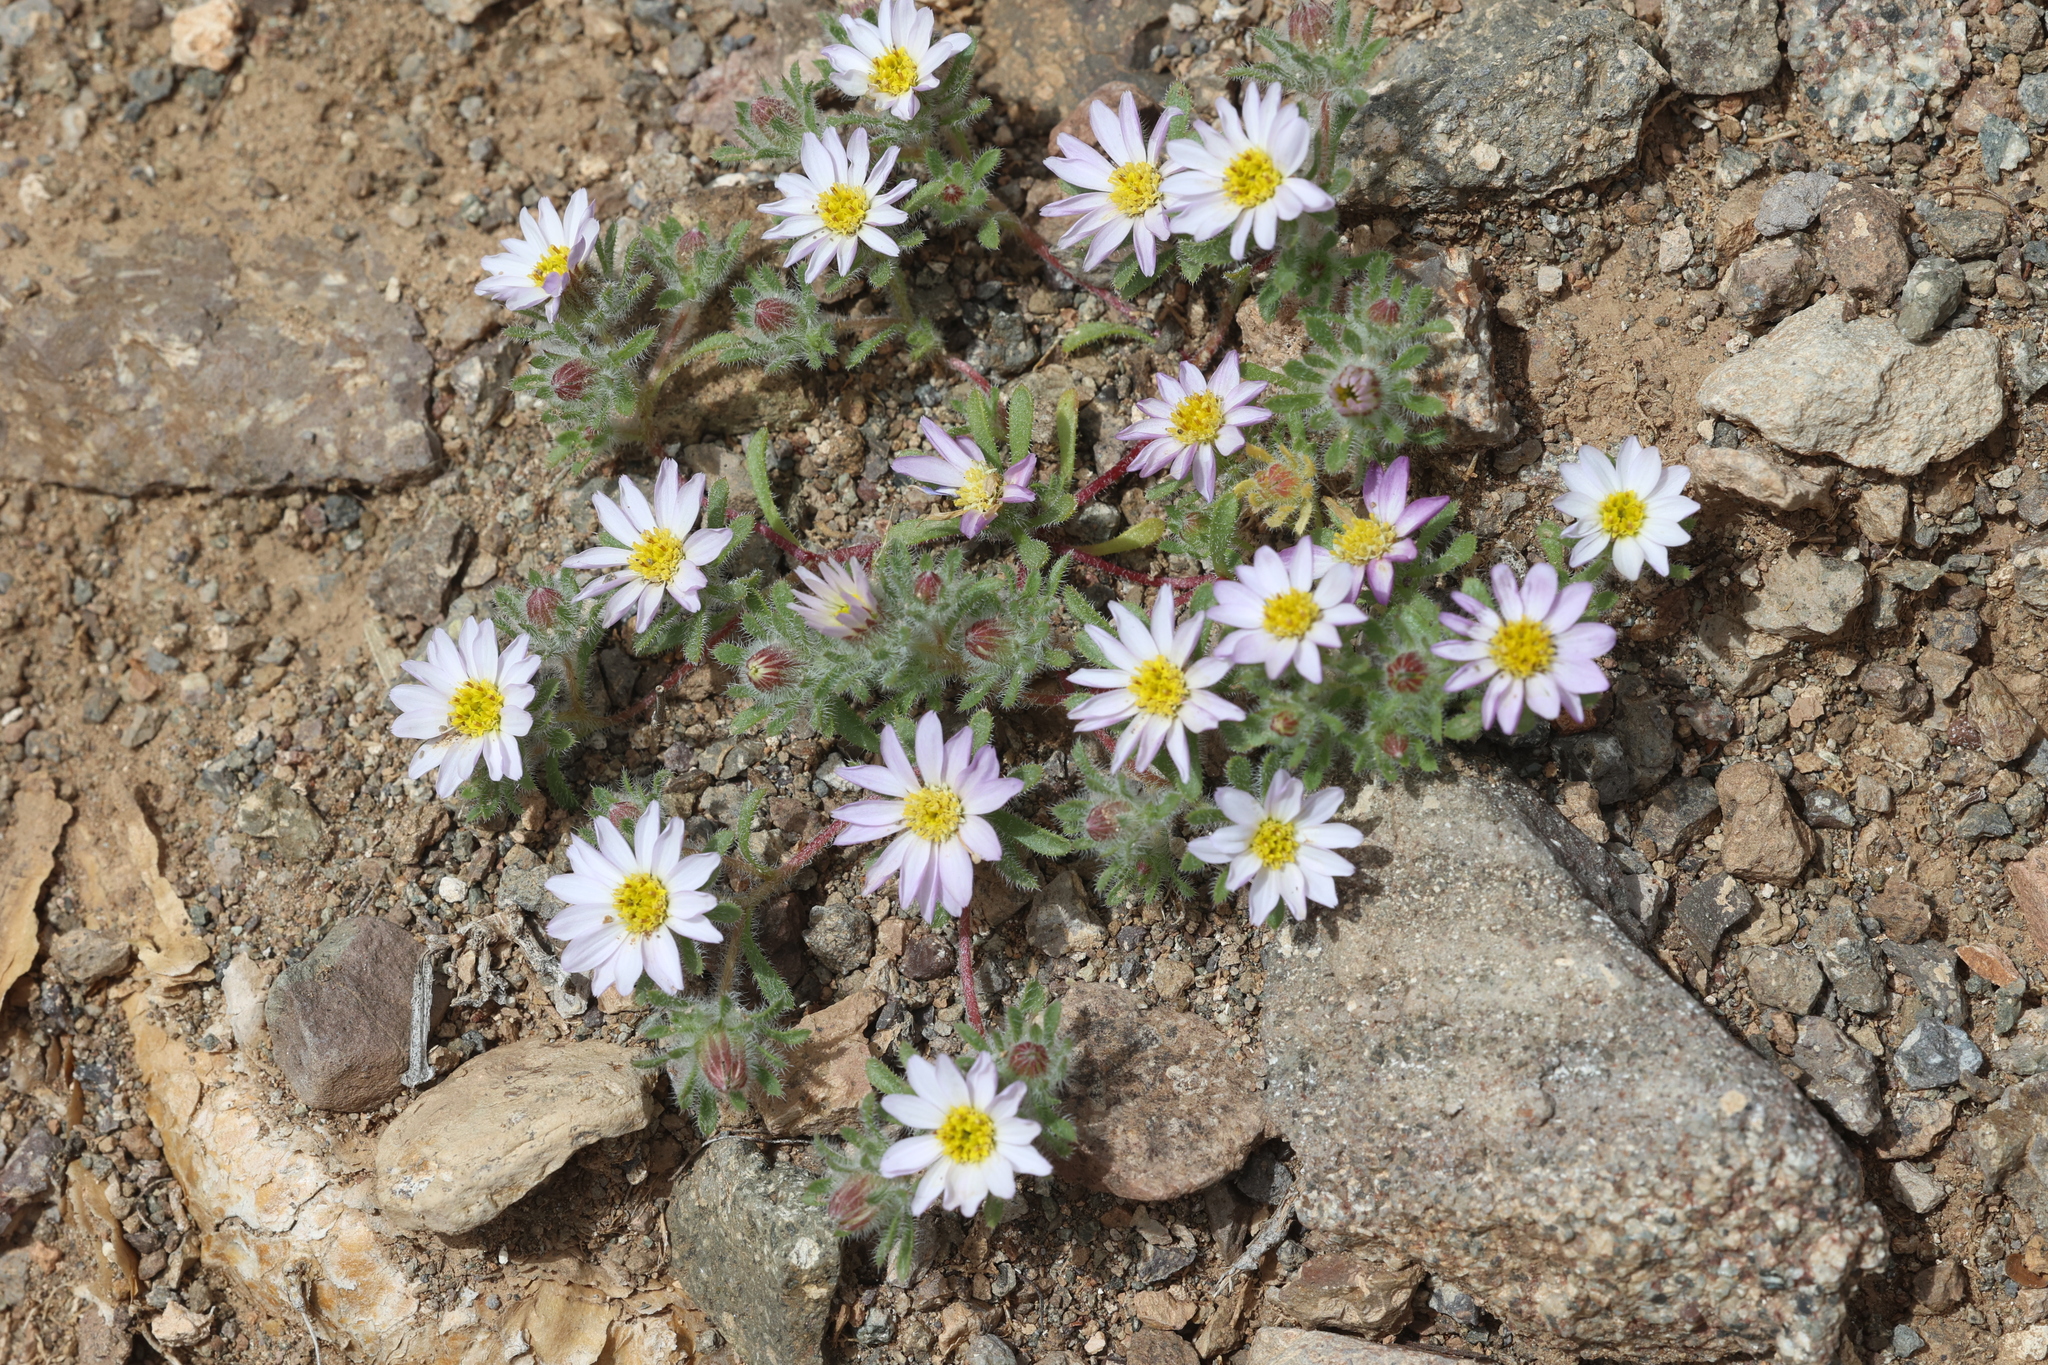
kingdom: Plantae
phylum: Tracheophyta
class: Magnoliopsida
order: Asterales
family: Asteraceae
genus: Monoptilon
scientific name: Monoptilon bellioides
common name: Bristly desertstar
